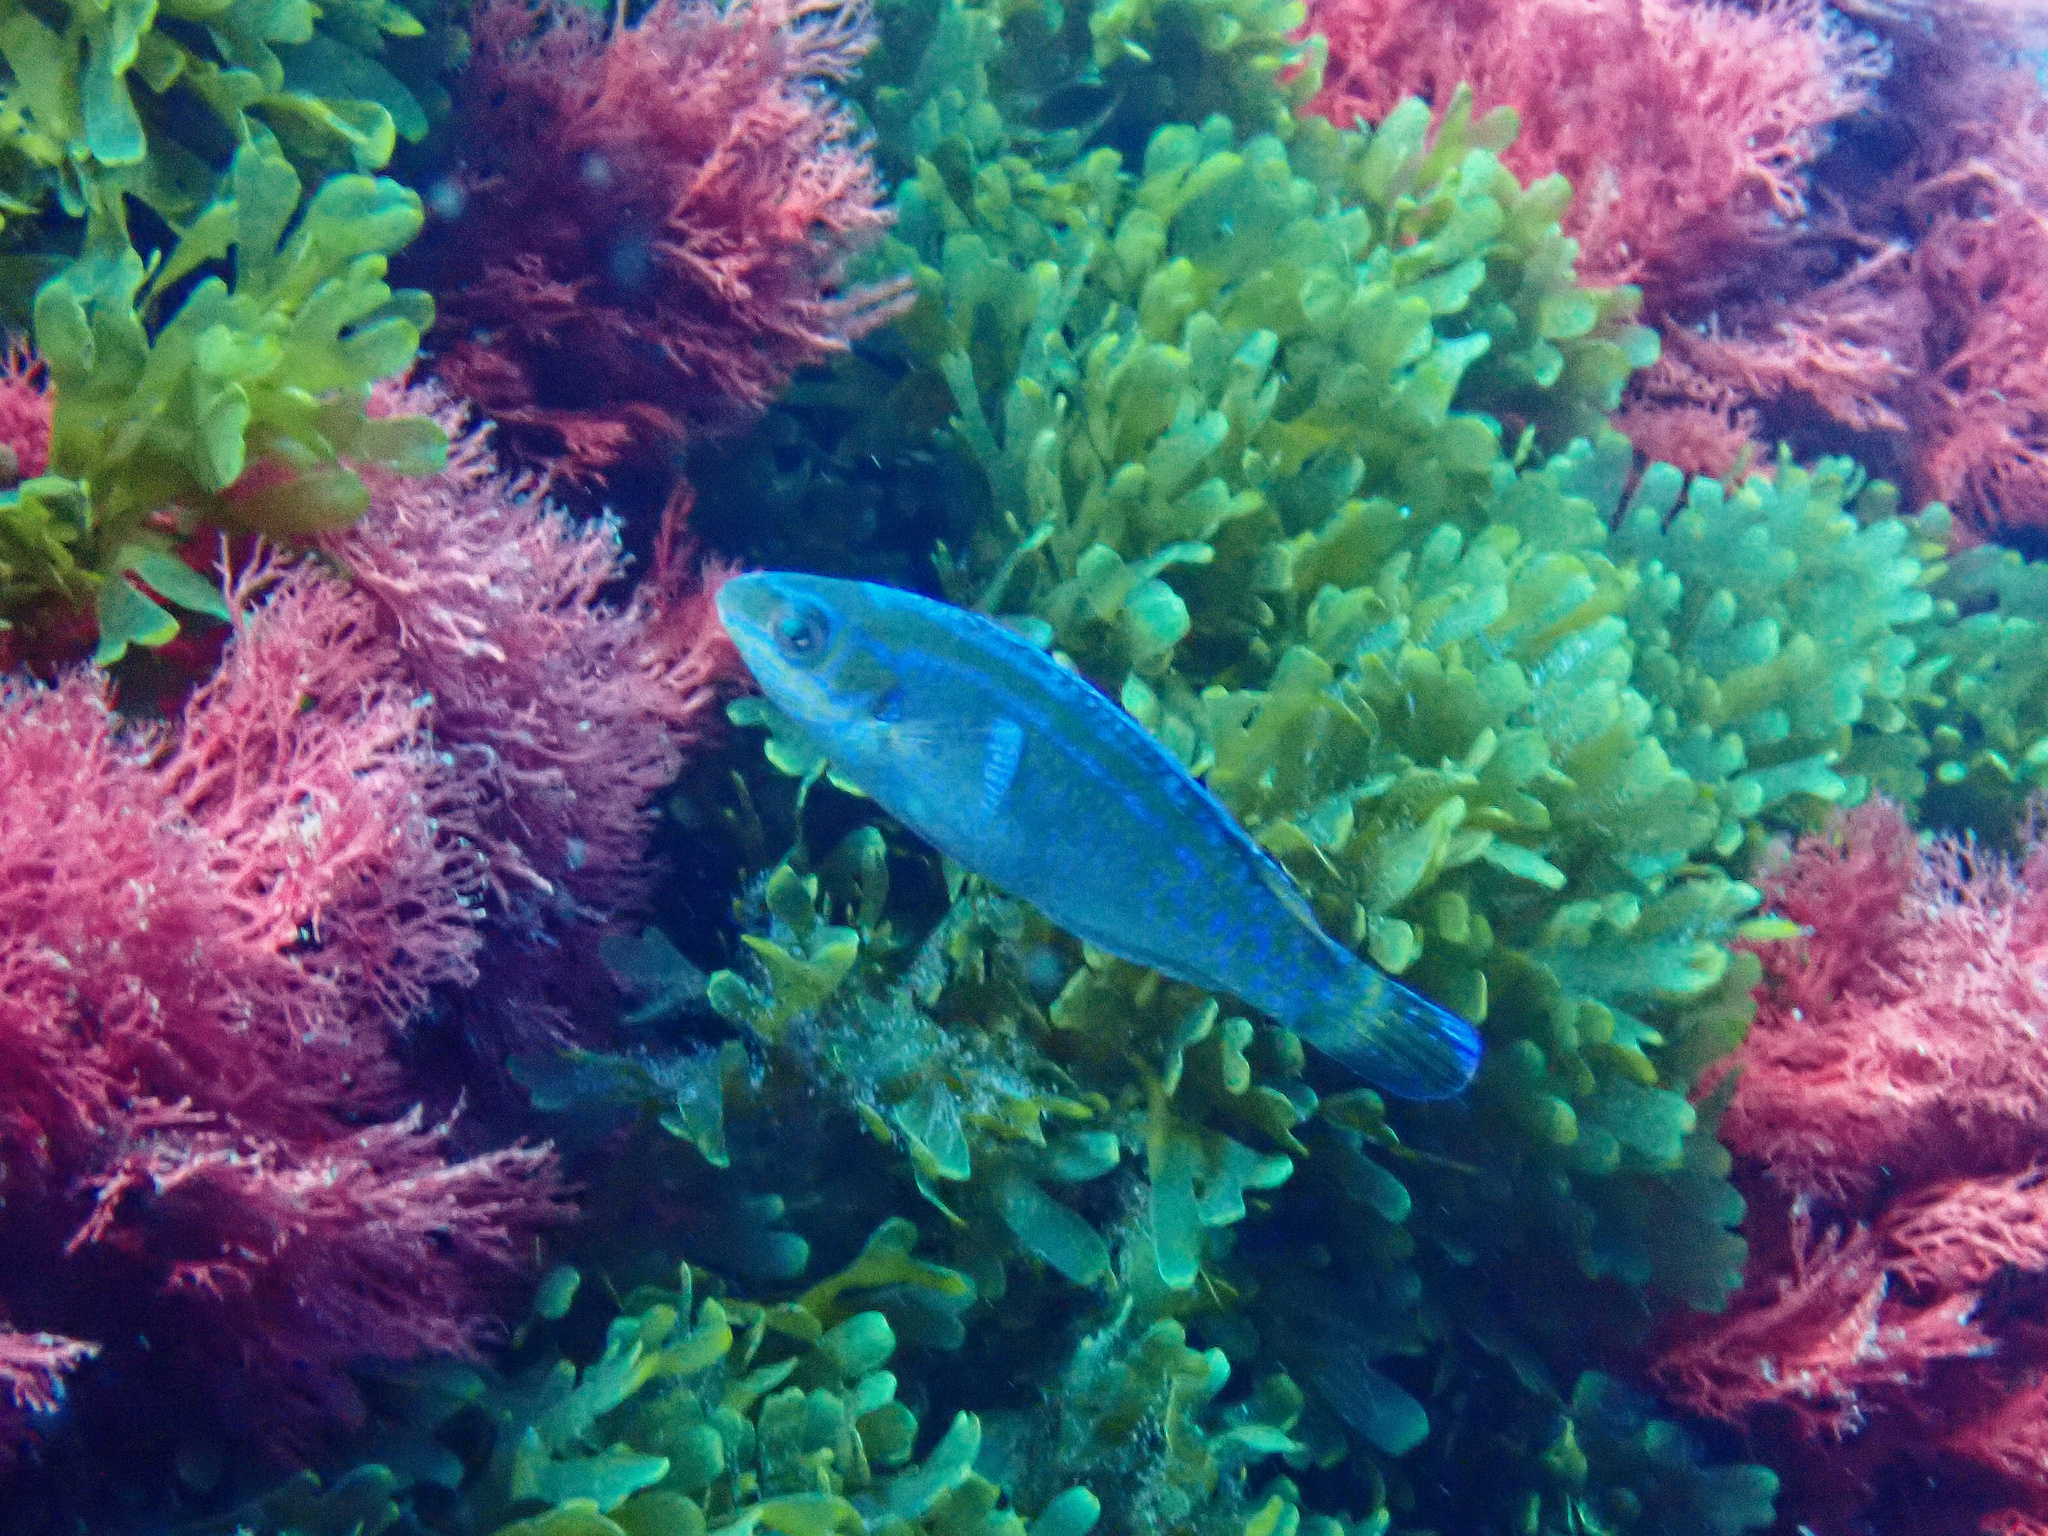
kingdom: Animalia
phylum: Chordata
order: Perciformes
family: Labridae
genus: Centrolabrus
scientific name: Centrolabrus melanocercus
